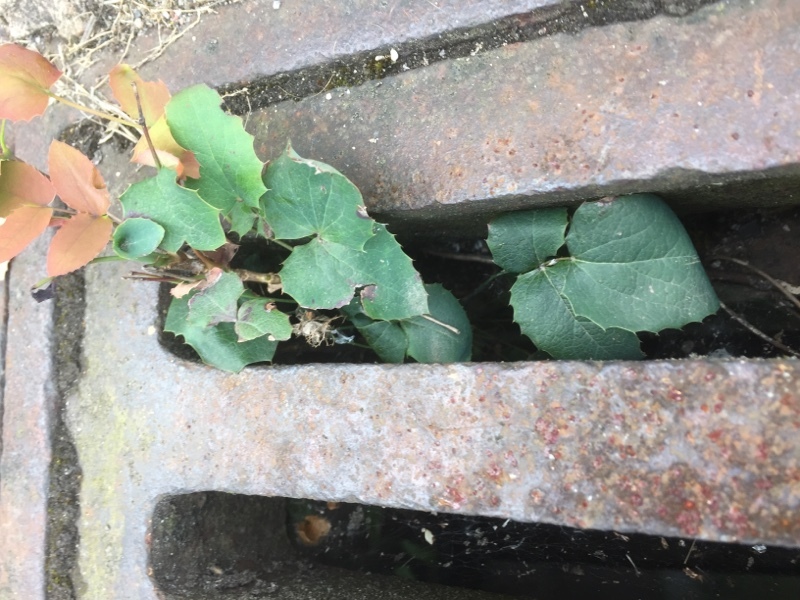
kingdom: Plantae
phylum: Tracheophyta
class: Magnoliopsida
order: Ranunculales
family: Berberidaceae
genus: Mahonia
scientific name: Mahonia aquifolium
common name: Oregon-grape
